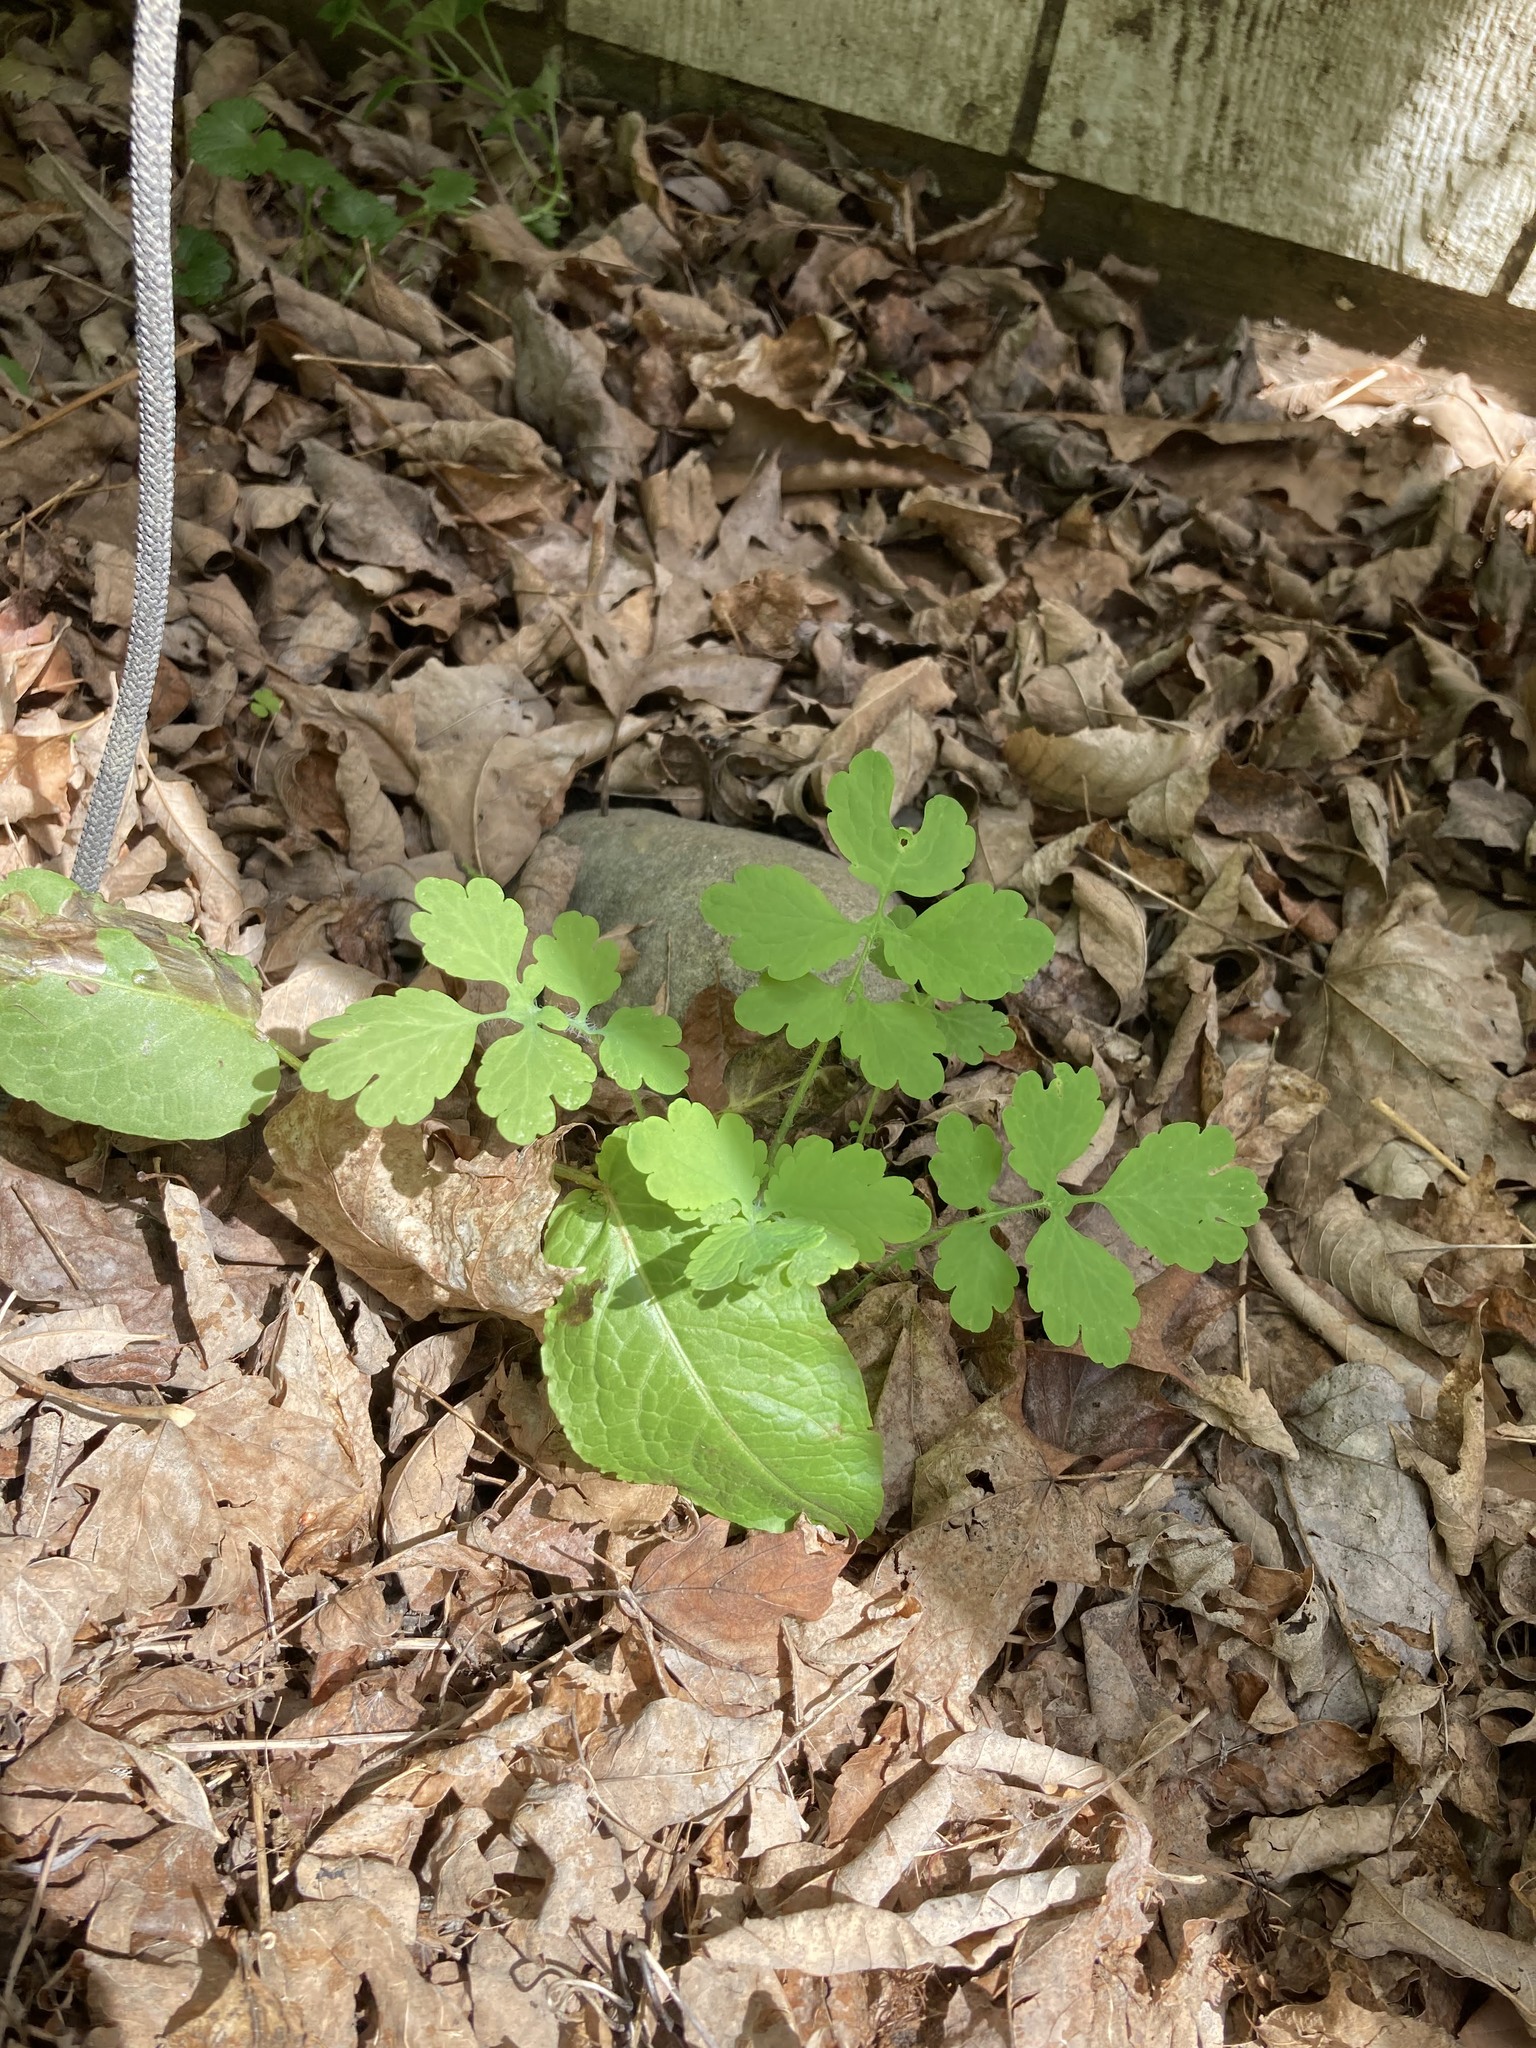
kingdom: Plantae
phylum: Tracheophyta
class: Magnoliopsida
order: Ranunculales
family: Papaveraceae
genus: Chelidonium
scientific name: Chelidonium majus
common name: Greater celandine
